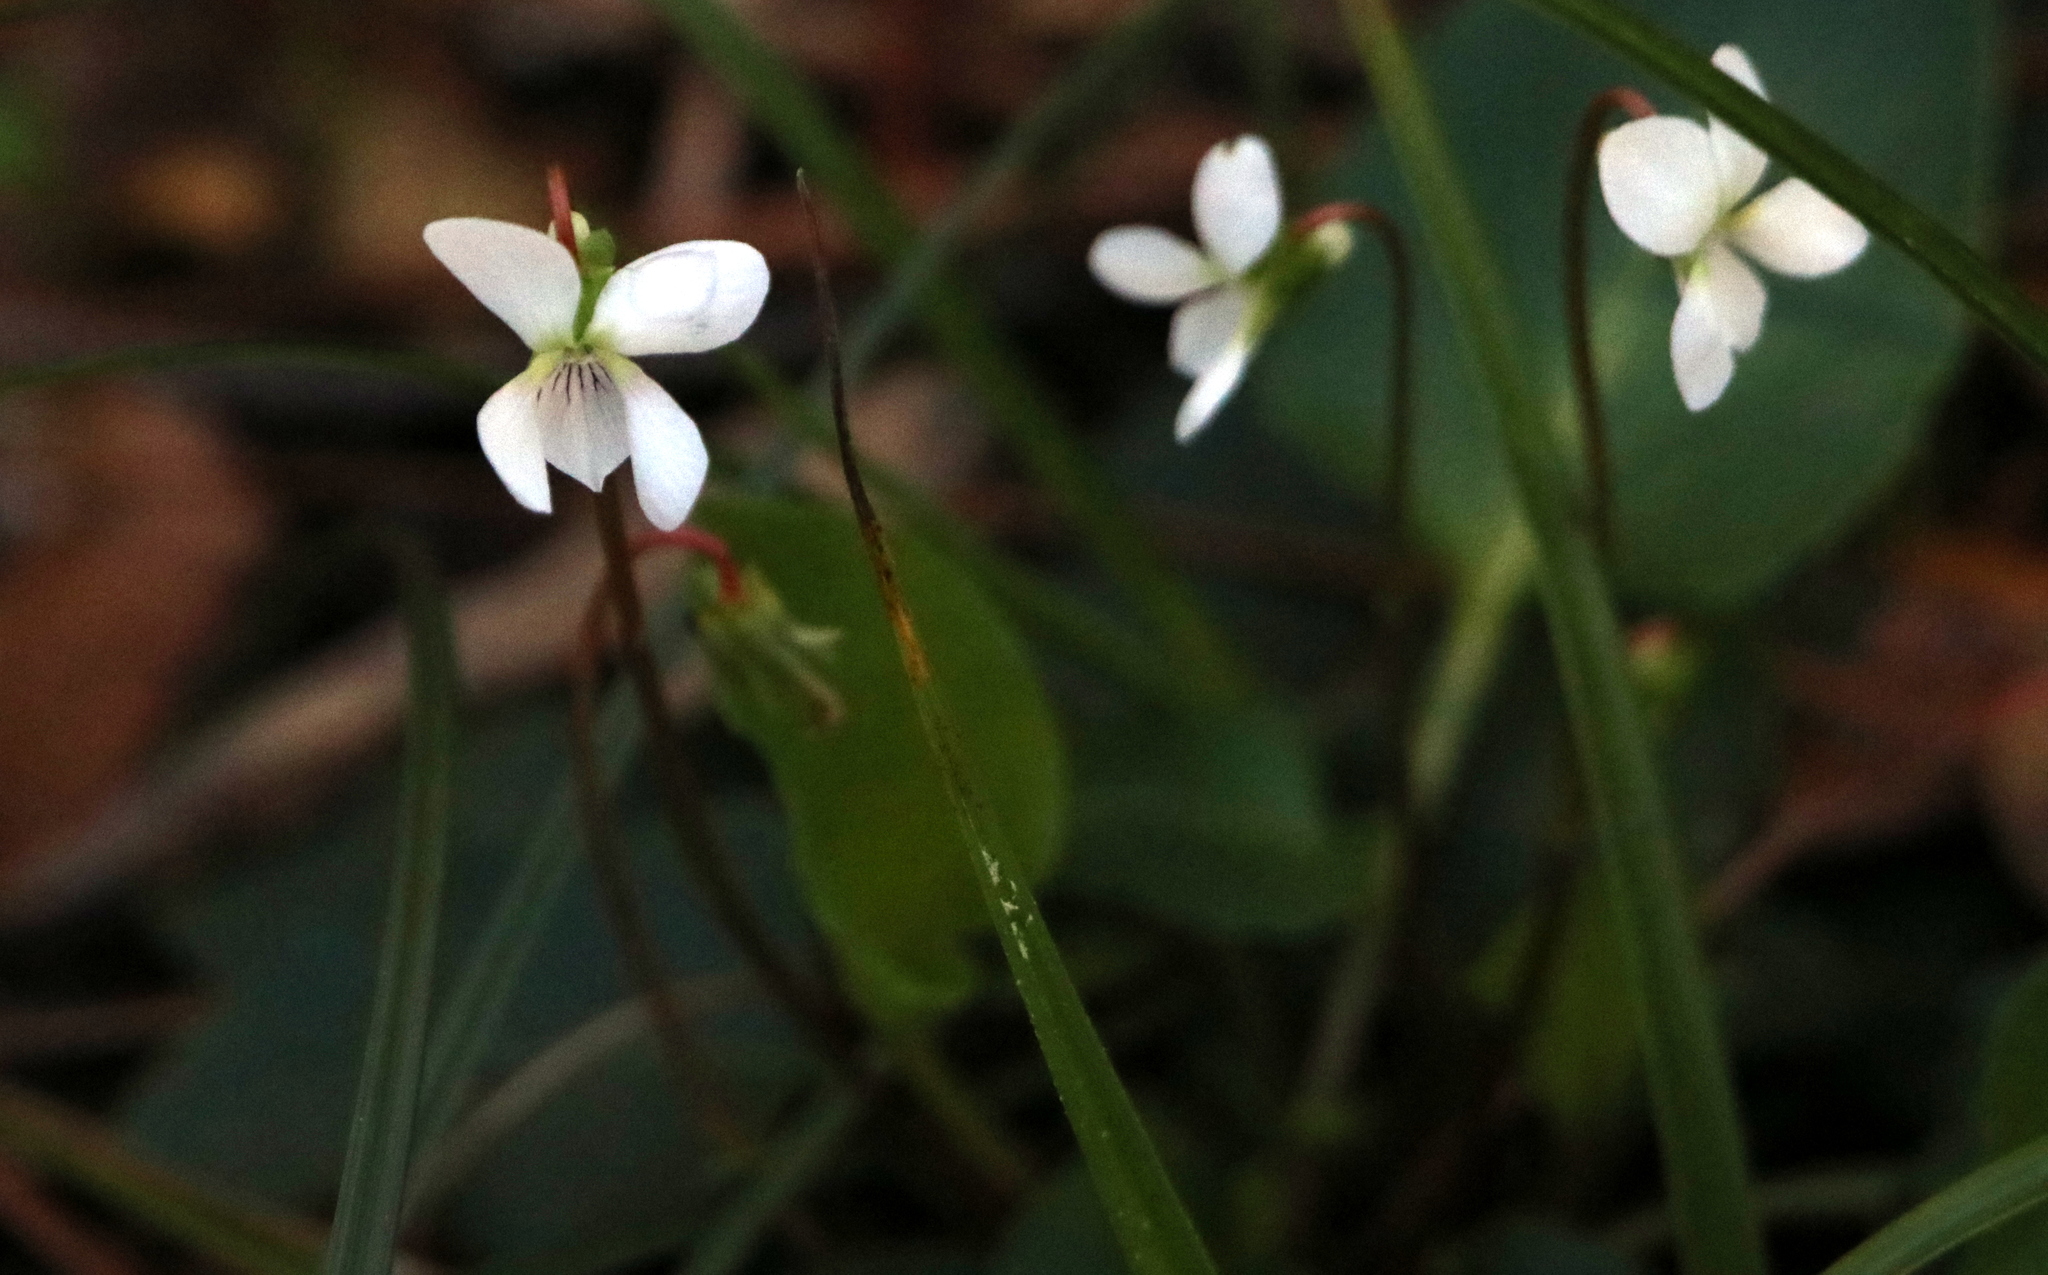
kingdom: Plantae
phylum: Tracheophyta
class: Magnoliopsida
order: Malpighiales
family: Violaceae
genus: Viola
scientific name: Viola primulifolia
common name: Primrose-leaf violet
